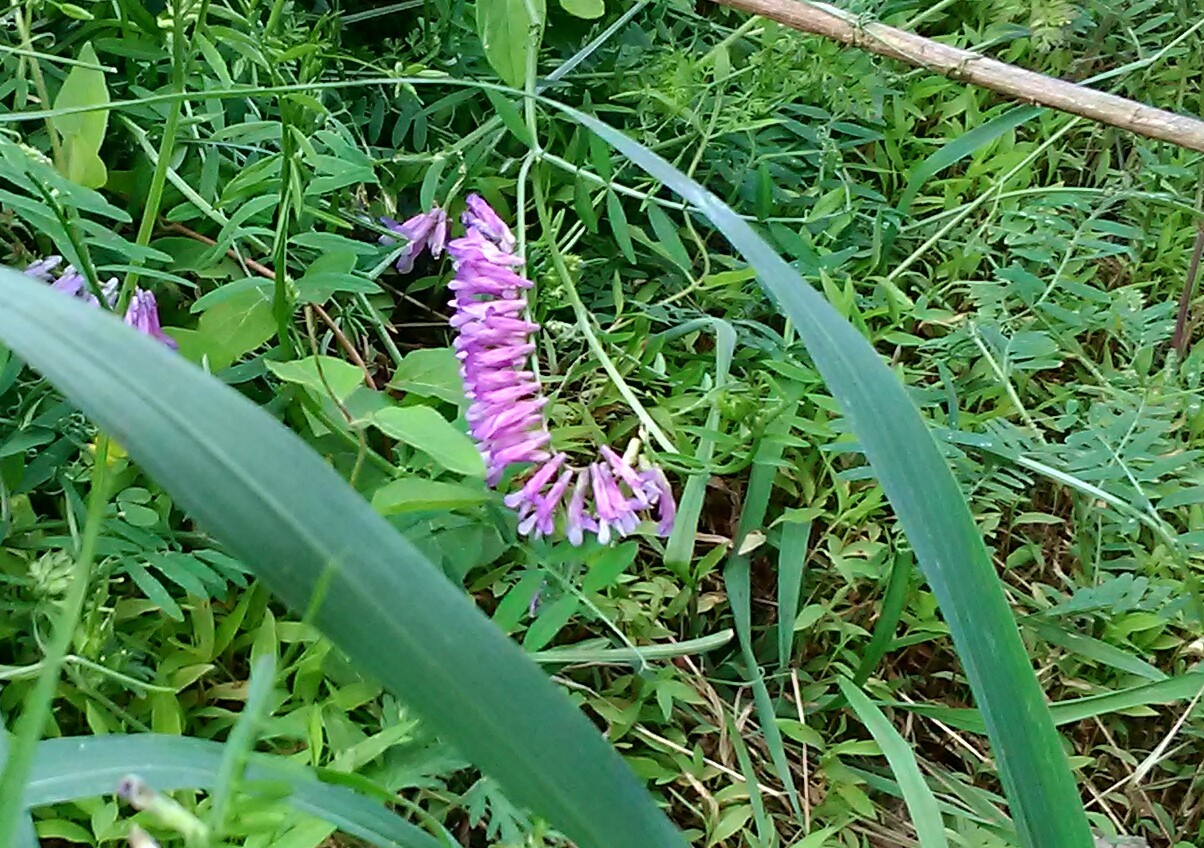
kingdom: Plantae
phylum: Tracheophyta
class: Magnoliopsida
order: Fabales
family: Fabaceae
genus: Vicia
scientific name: Vicia villosa
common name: Fodder vetch
